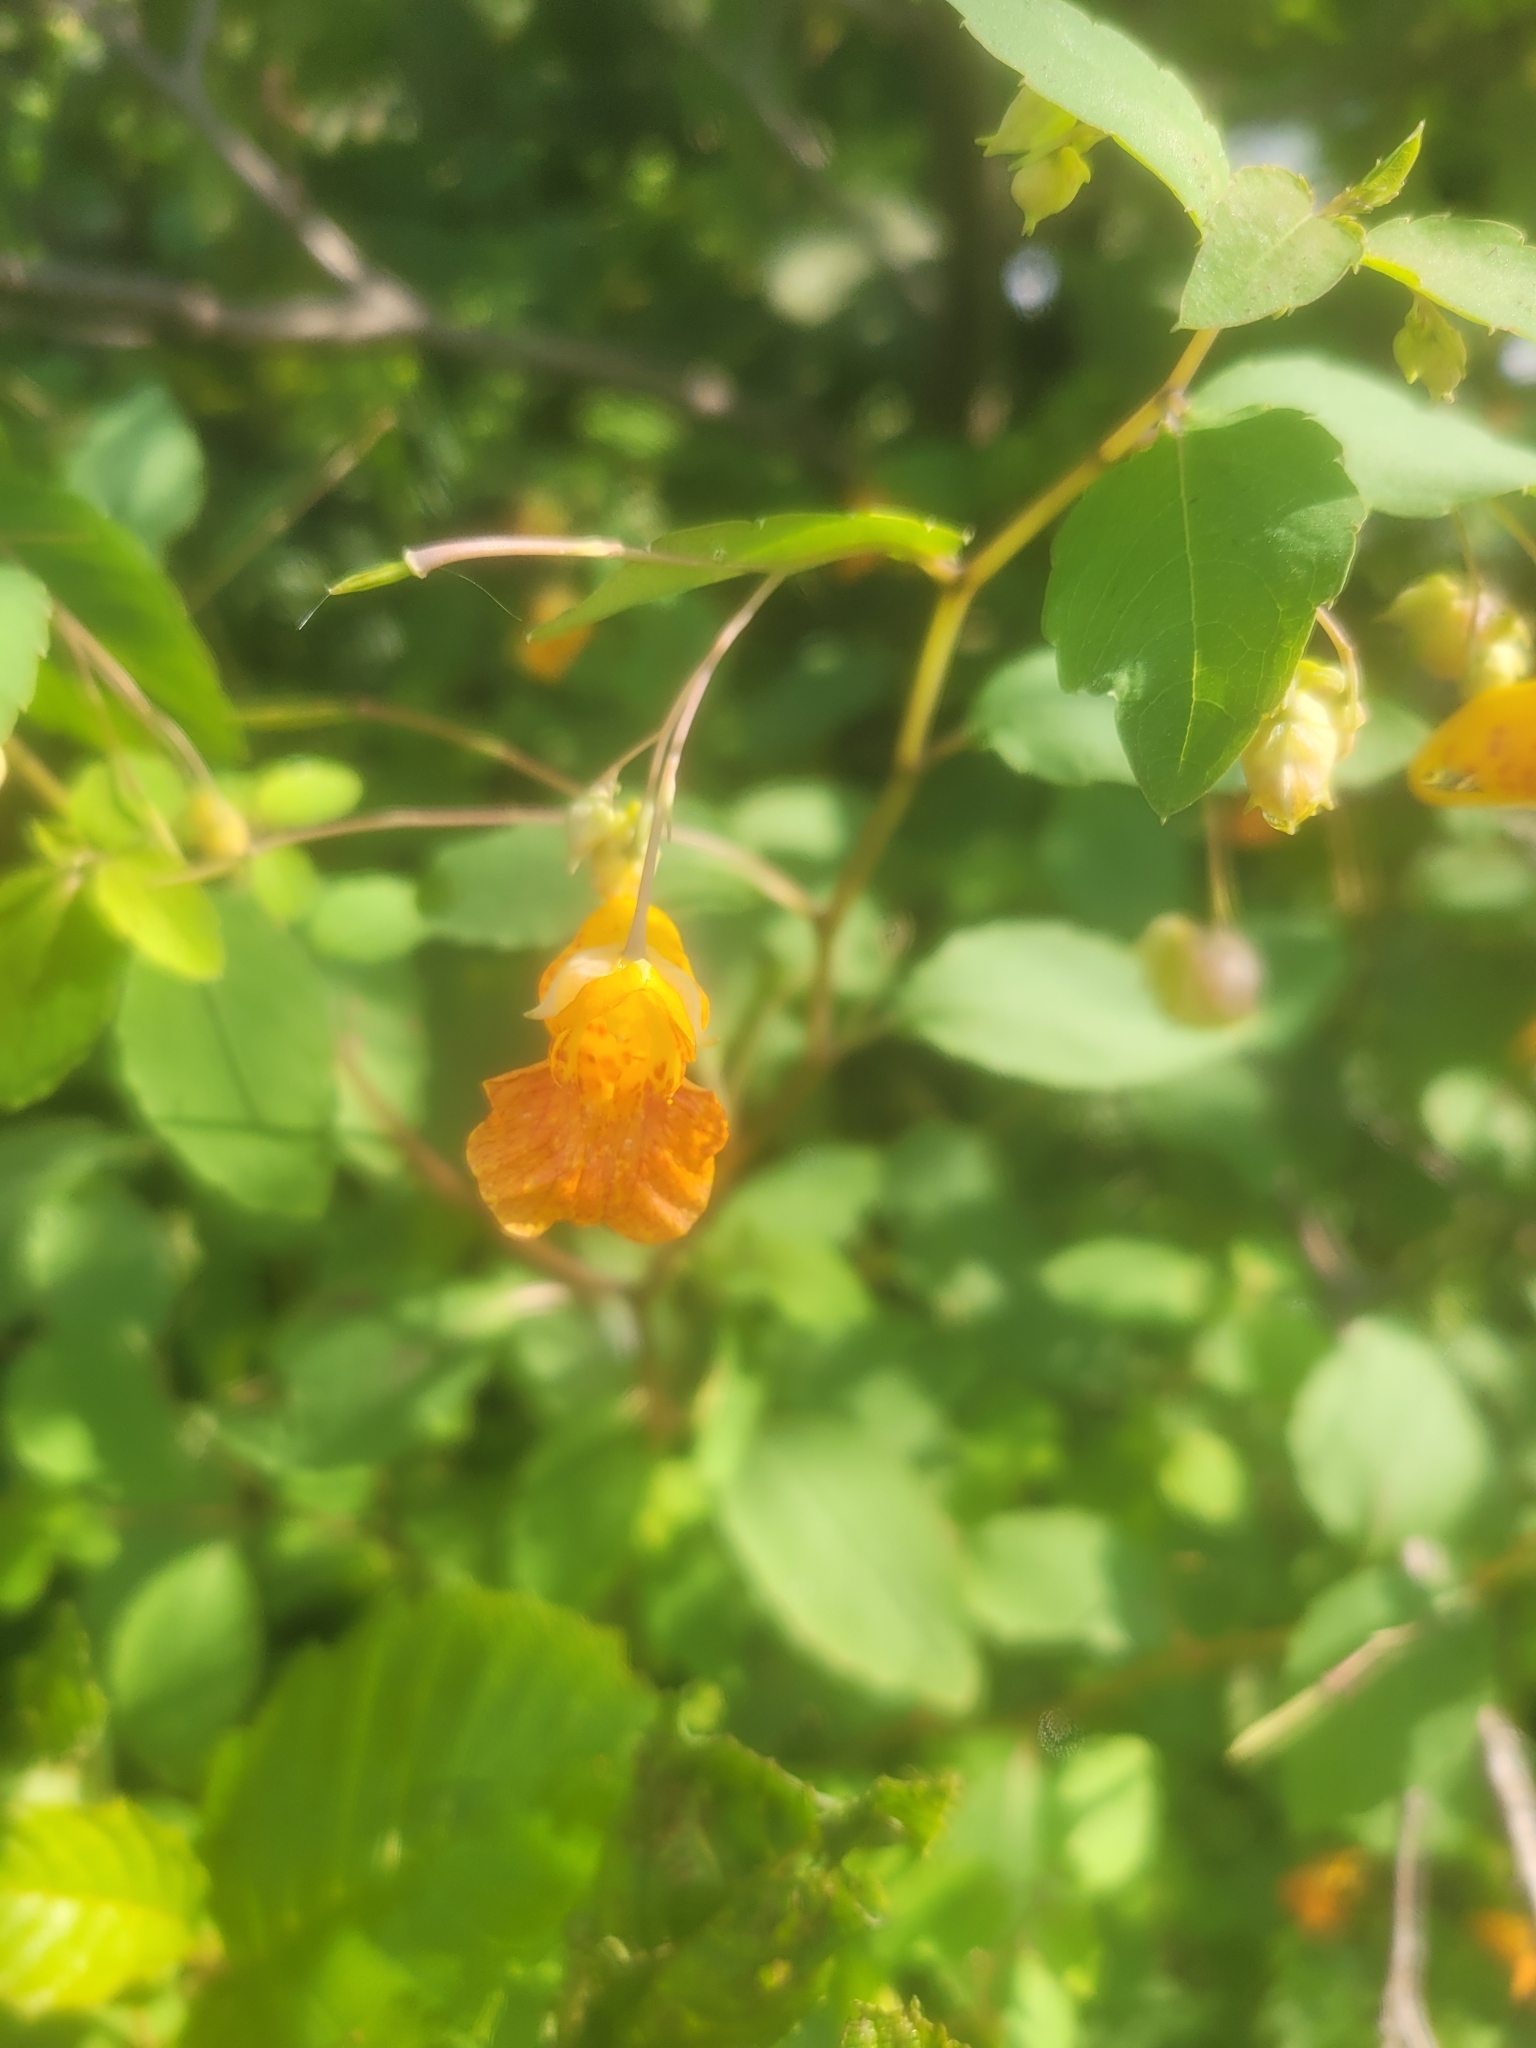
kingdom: Plantae
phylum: Tracheophyta
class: Magnoliopsida
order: Ericales
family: Balsaminaceae
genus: Impatiens
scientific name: Impatiens capensis
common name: Orange balsam
